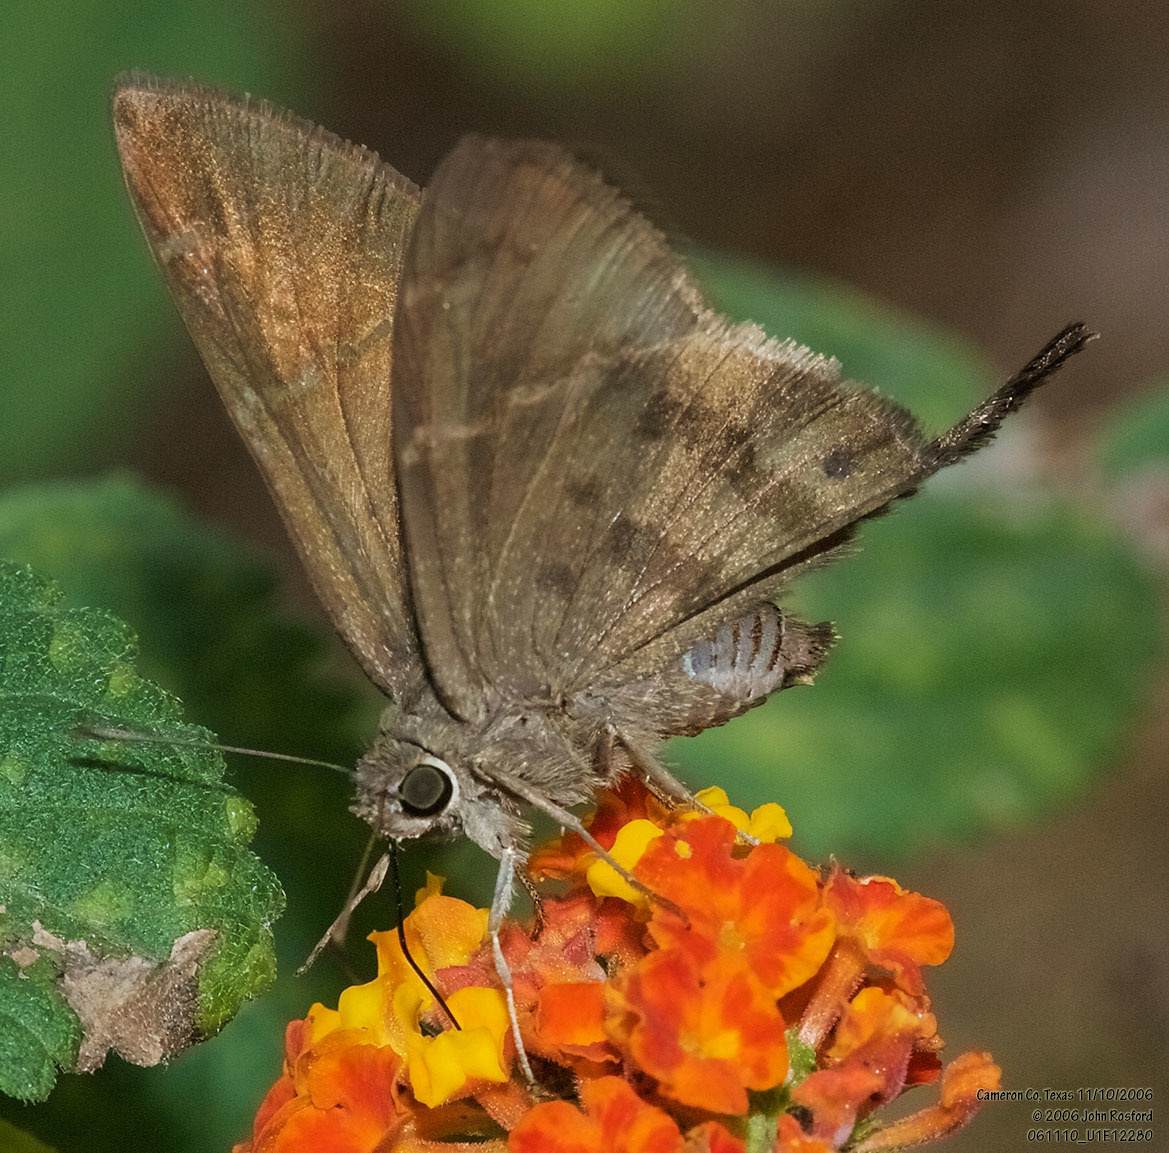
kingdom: Animalia
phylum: Arthropoda
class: Insecta
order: Lepidoptera
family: Hesperiidae
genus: Urbanus
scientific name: Urbanus procne
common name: Brown longtail
